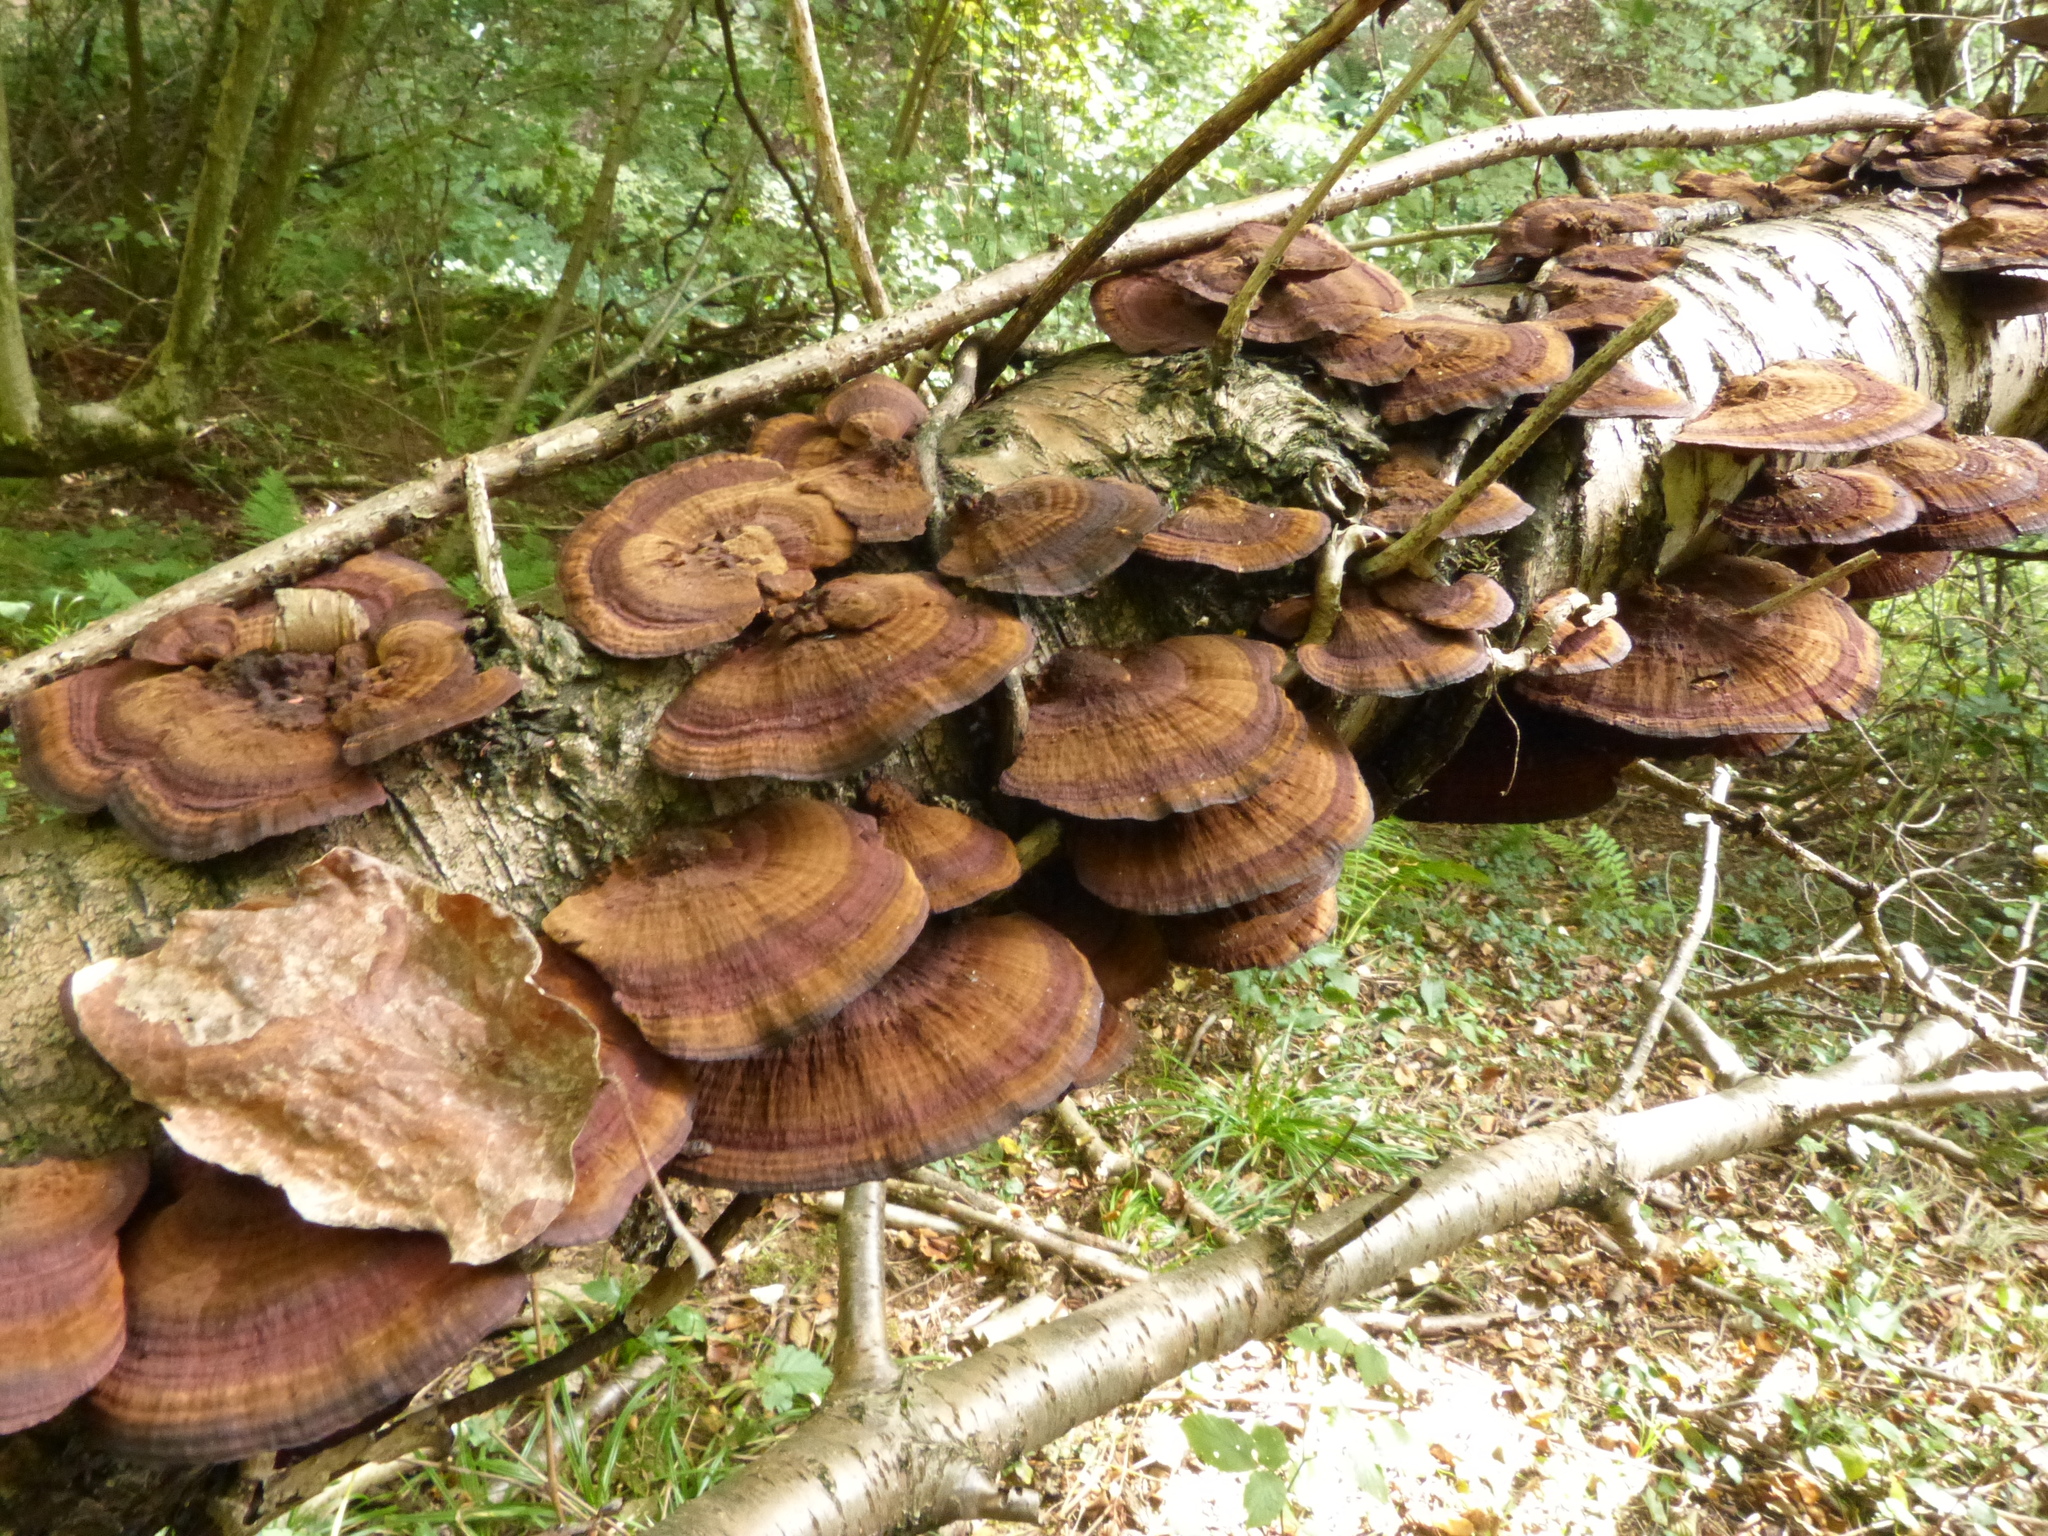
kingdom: Fungi
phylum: Basidiomycota
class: Agaricomycetes
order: Polyporales
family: Polyporaceae
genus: Daedaleopsis
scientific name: Daedaleopsis confragosa
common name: Blushing bracket
